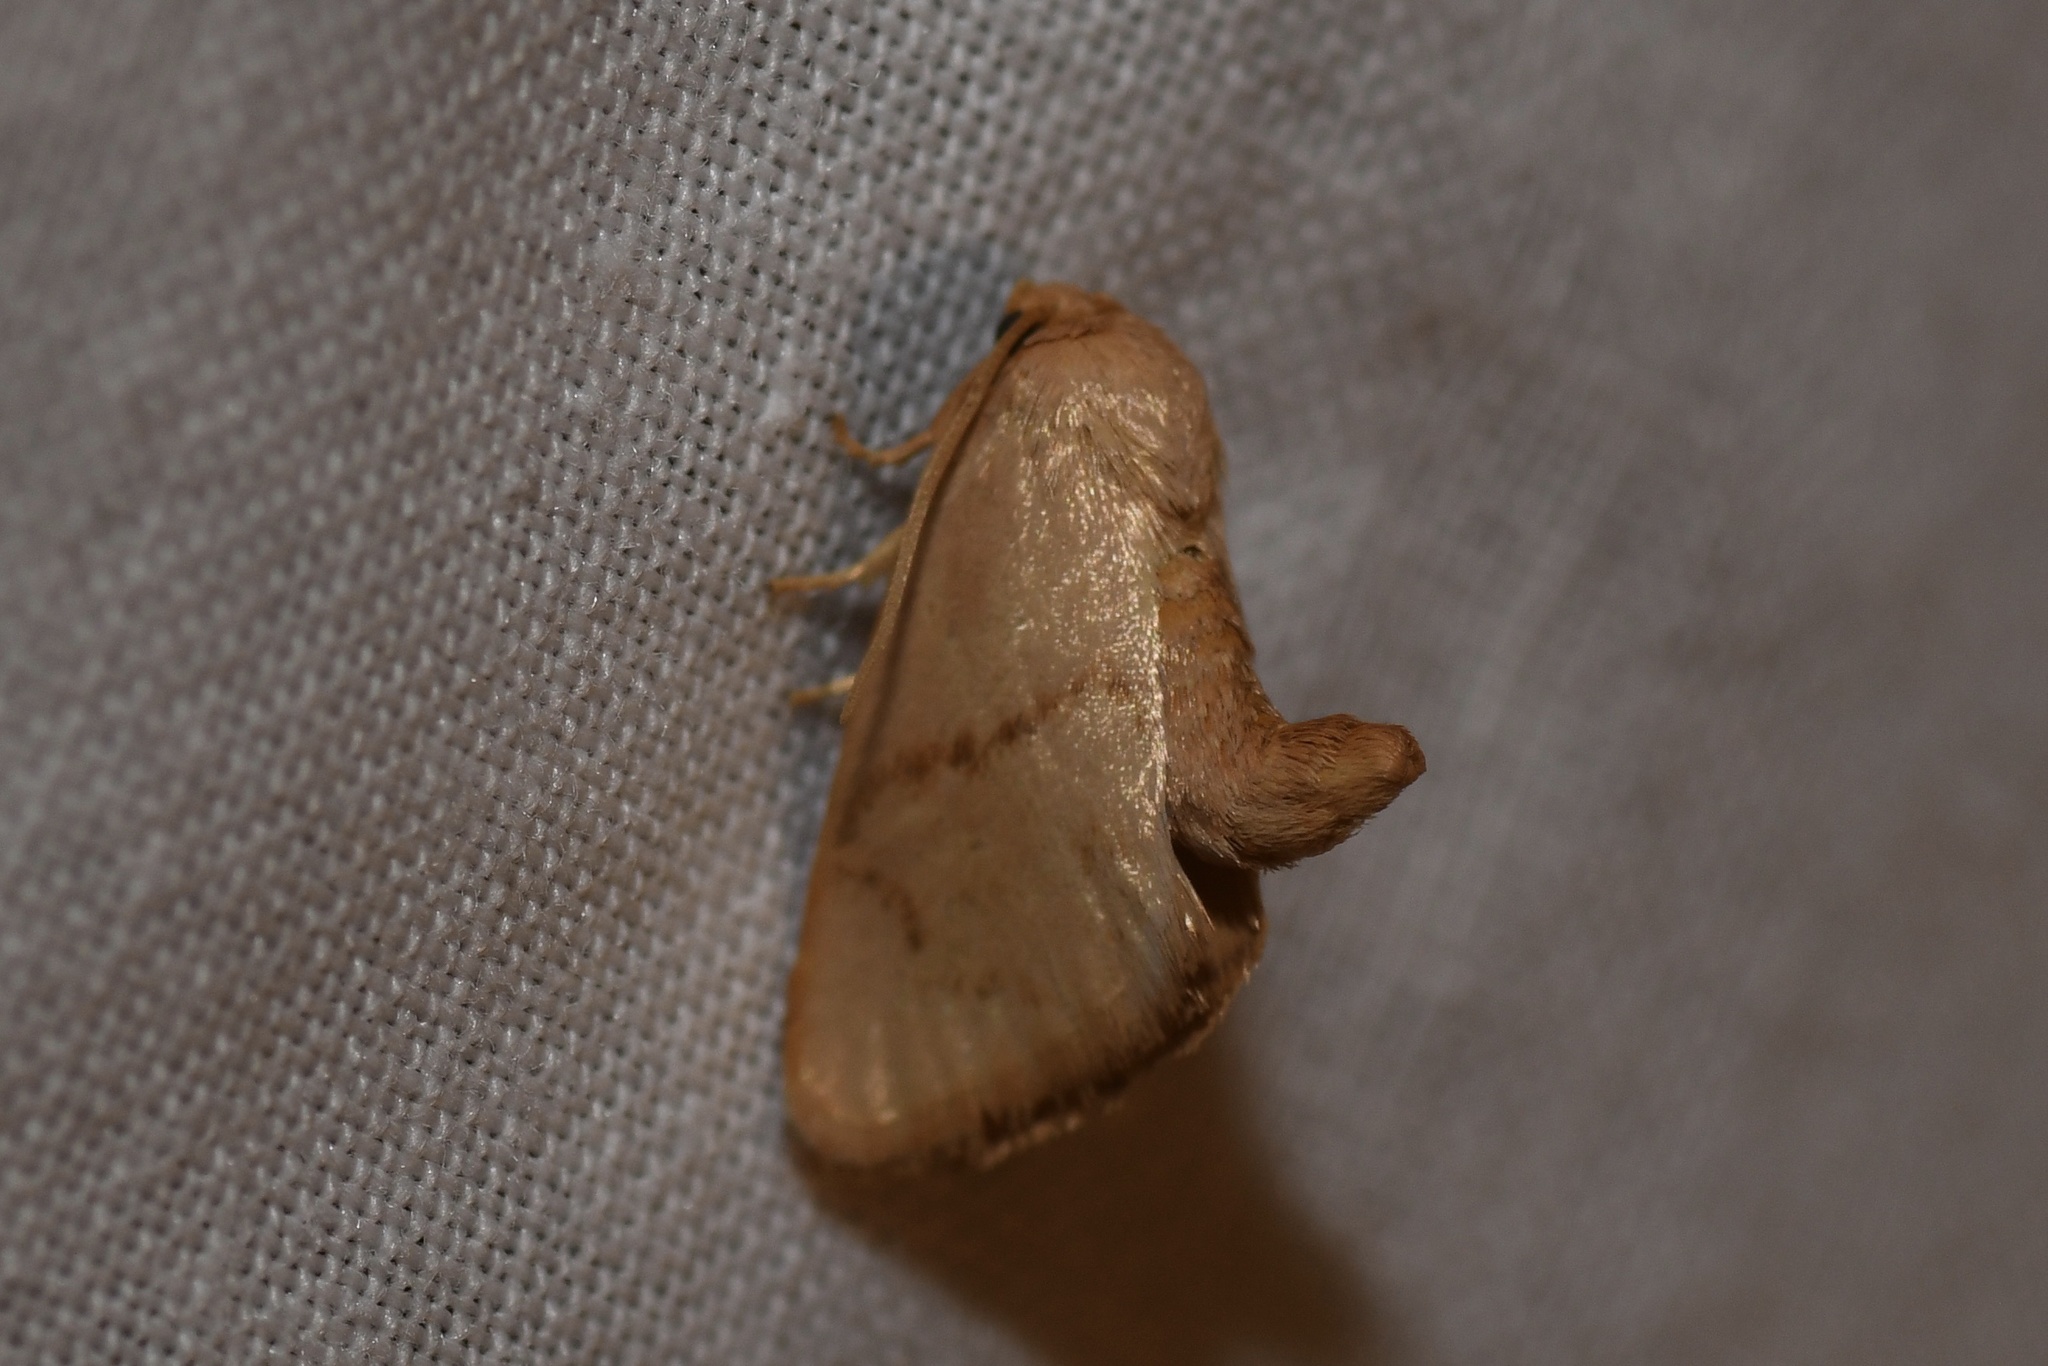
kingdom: Animalia
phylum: Arthropoda
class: Insecta
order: Lepidoptera
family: Limacodidae
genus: Tortricidia
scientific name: Tortricidia flexuosa
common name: Abbreviated button slug moth
